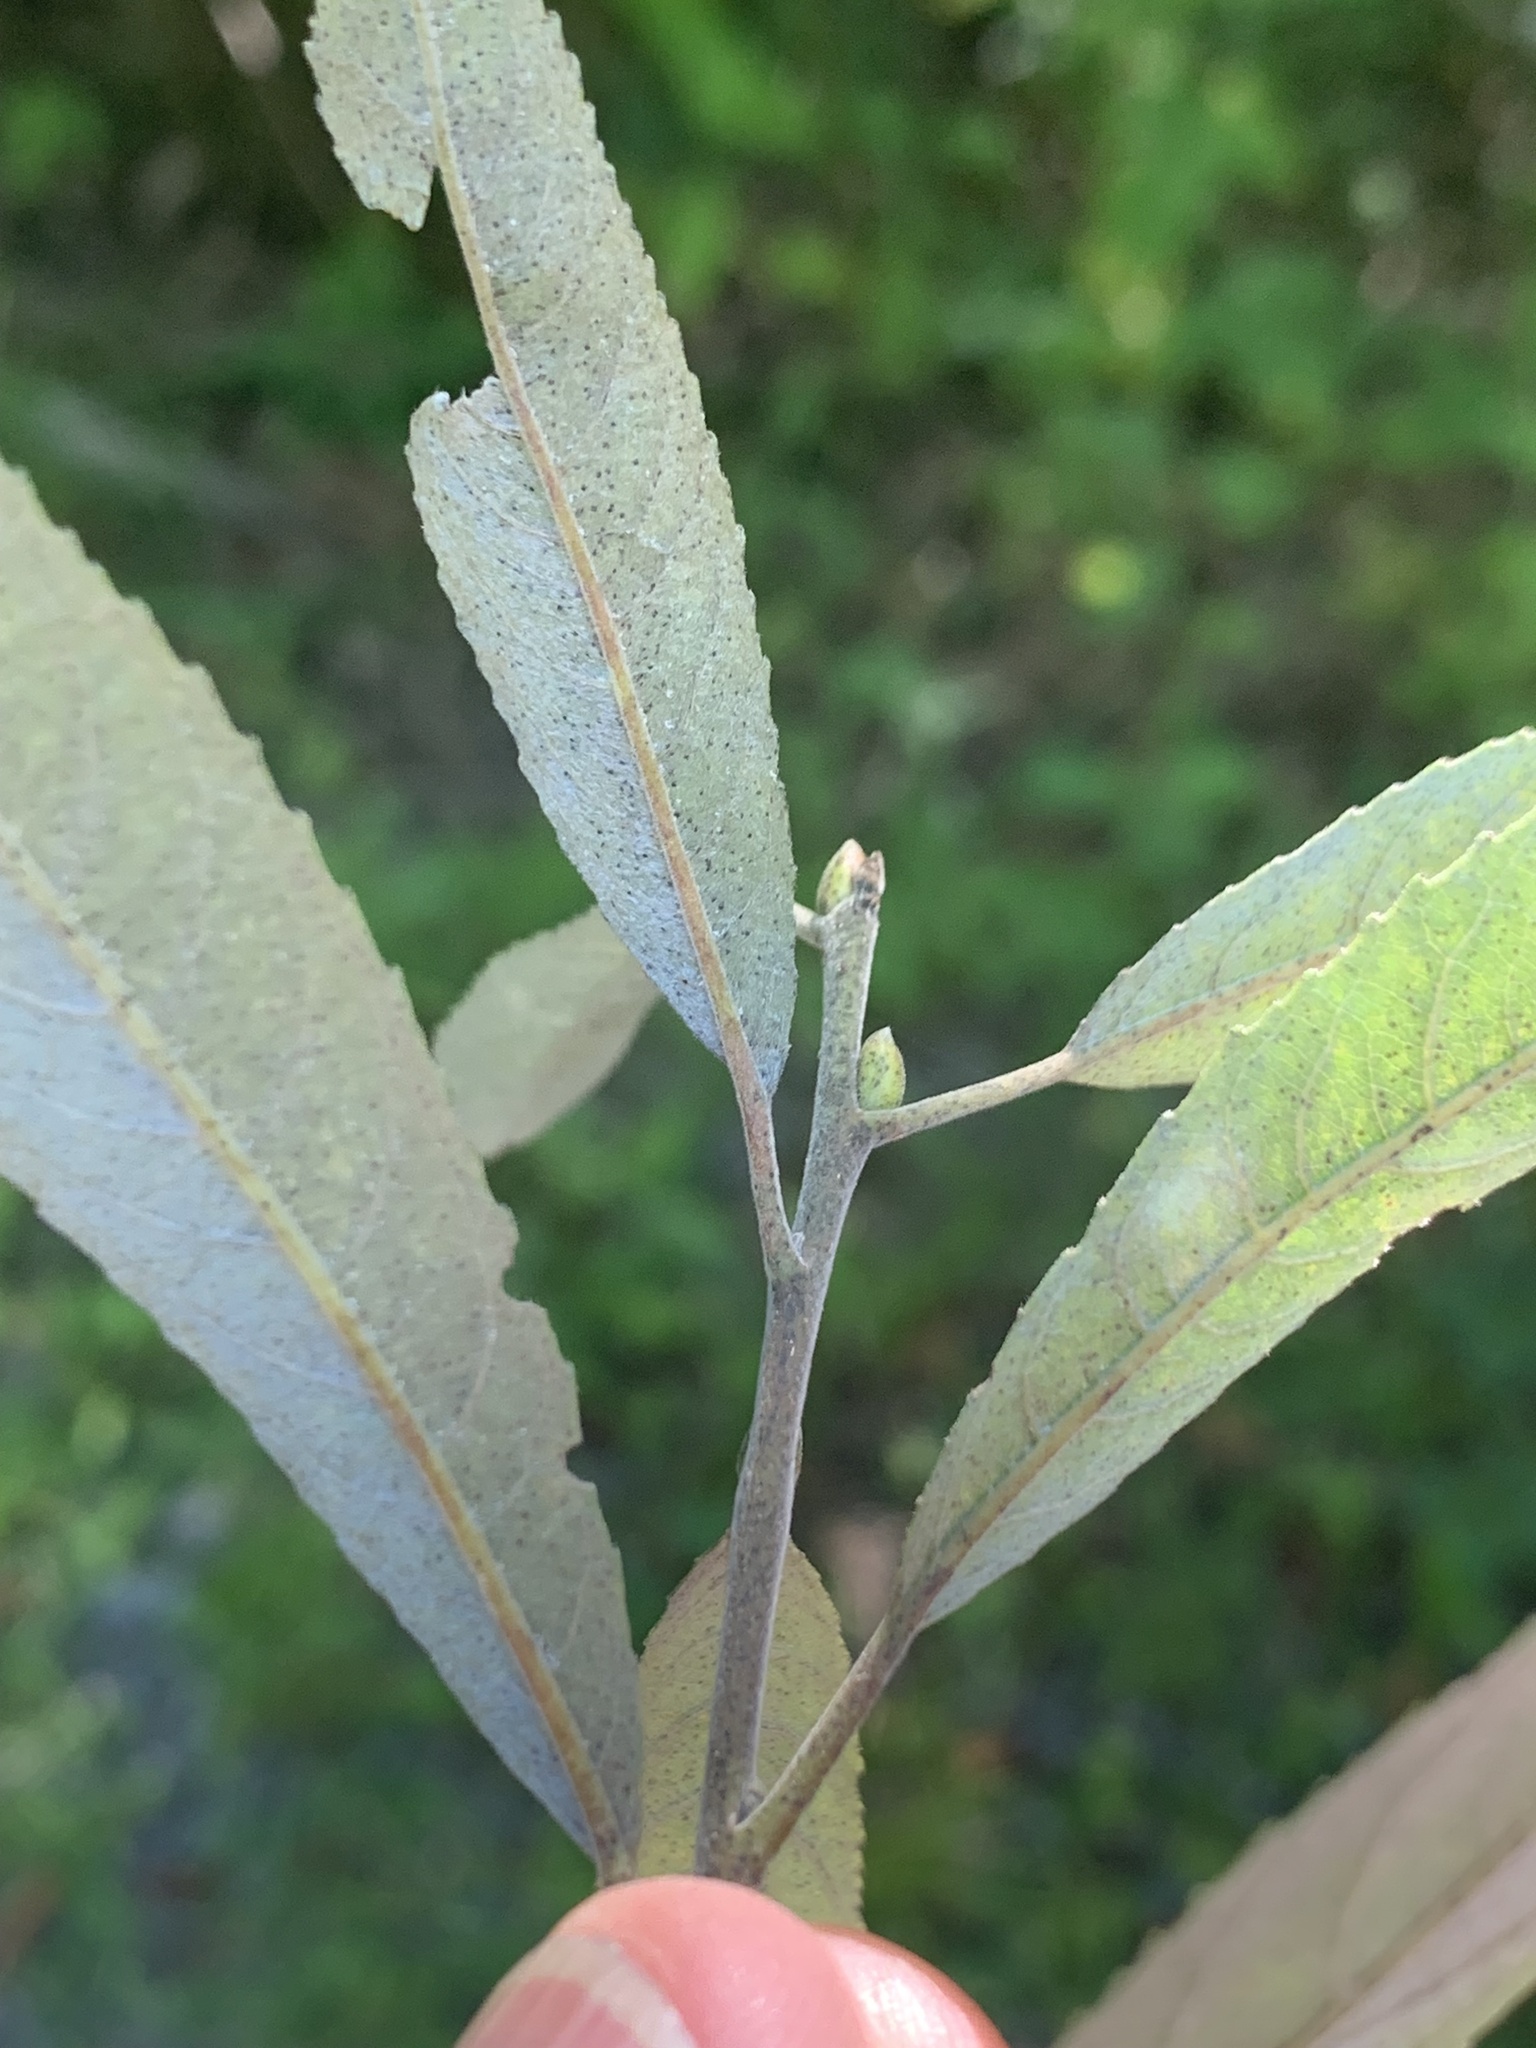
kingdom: Plantae
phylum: Tracheophyta
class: Magnoliopsida
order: Malpighiales
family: Salicaceae
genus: Salix
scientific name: Salix sericea
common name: Silky willow
